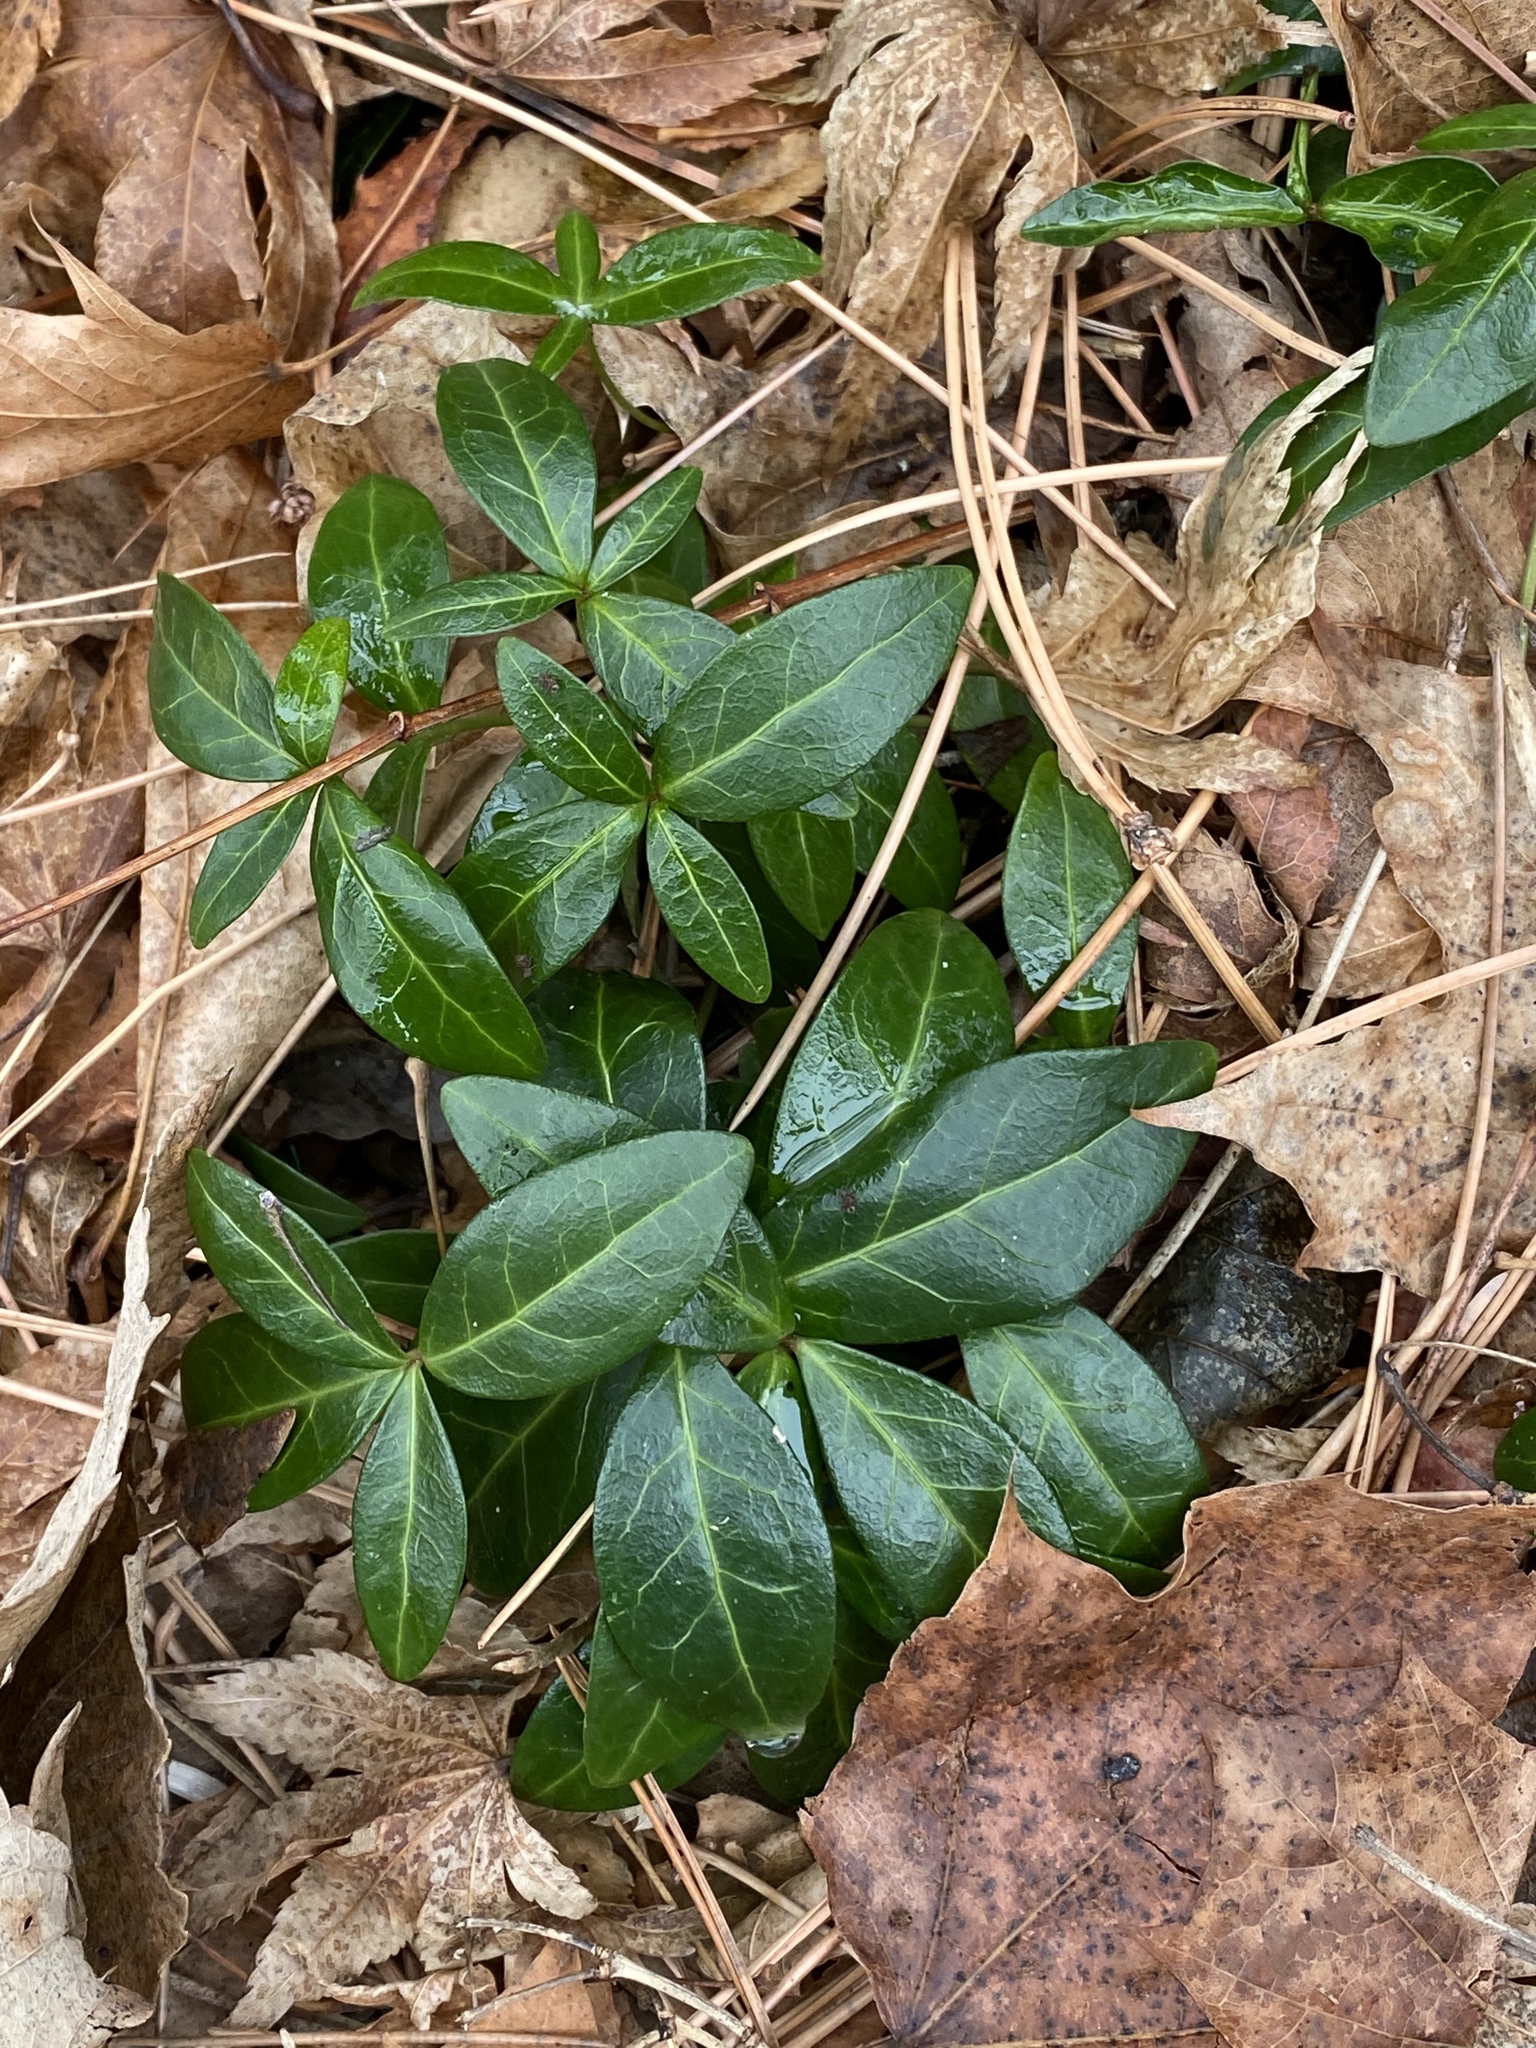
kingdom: Plantae
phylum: Tracheophyta
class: Magnoliopsida
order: Gentianales
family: Apocynaceae
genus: Vinca
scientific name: Vinca minor
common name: Lesser periwinkle
